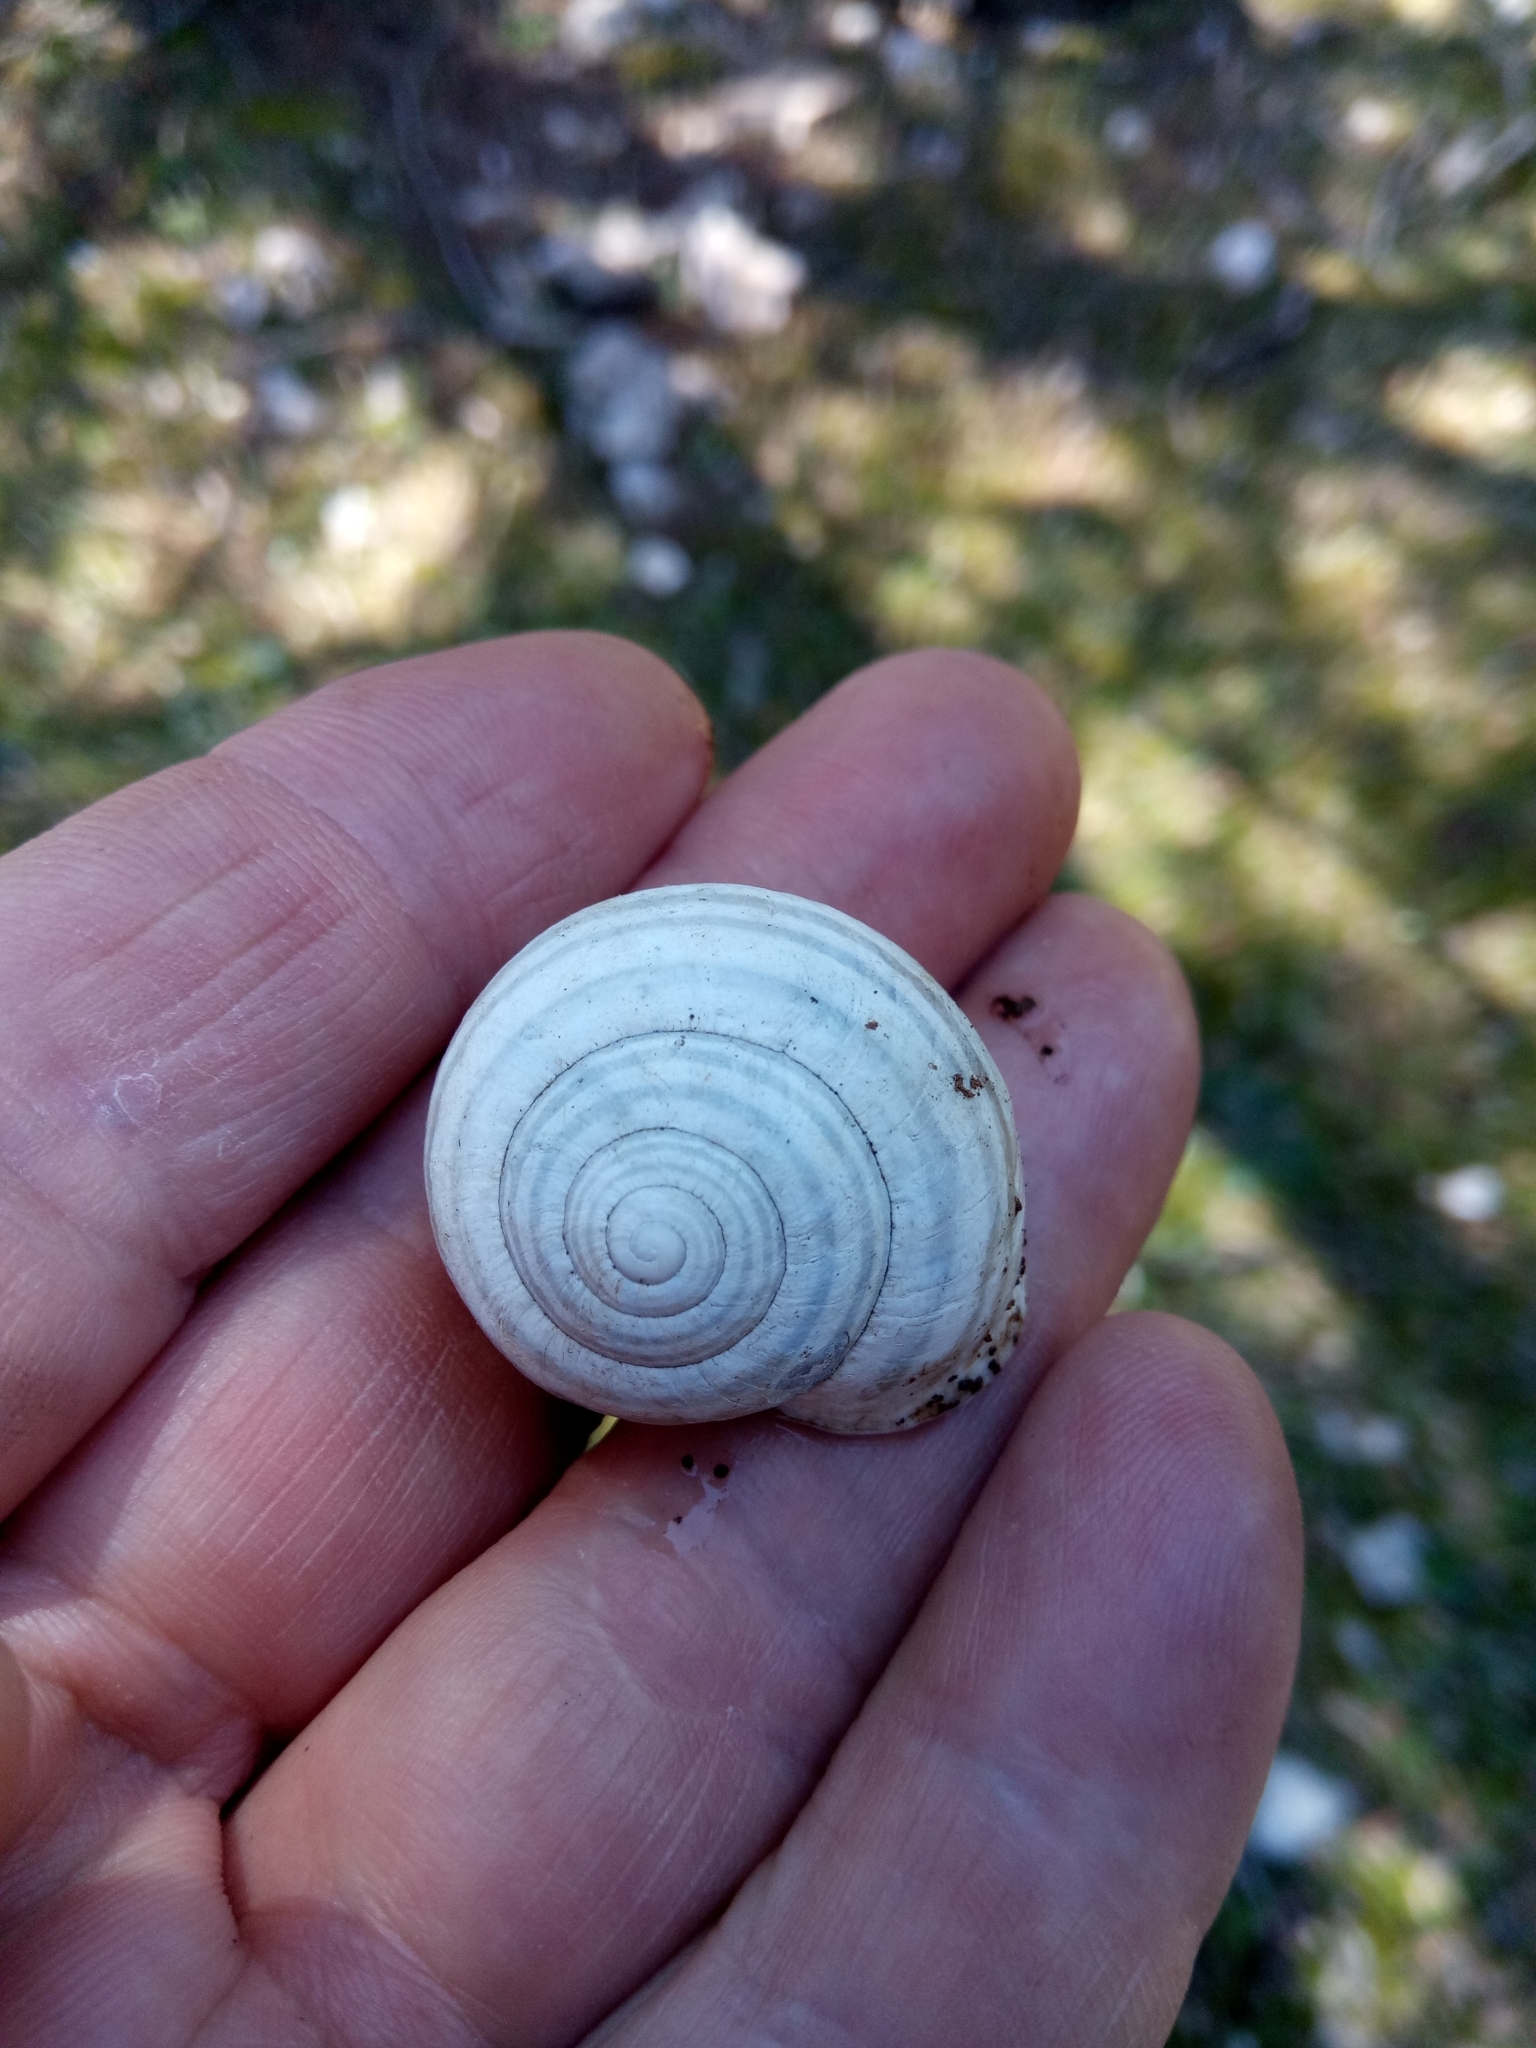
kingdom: Animalia
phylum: Mollusca
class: Gastropoda
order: Stylommatophora
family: Helicidae
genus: Eobania
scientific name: Eobania constantina
